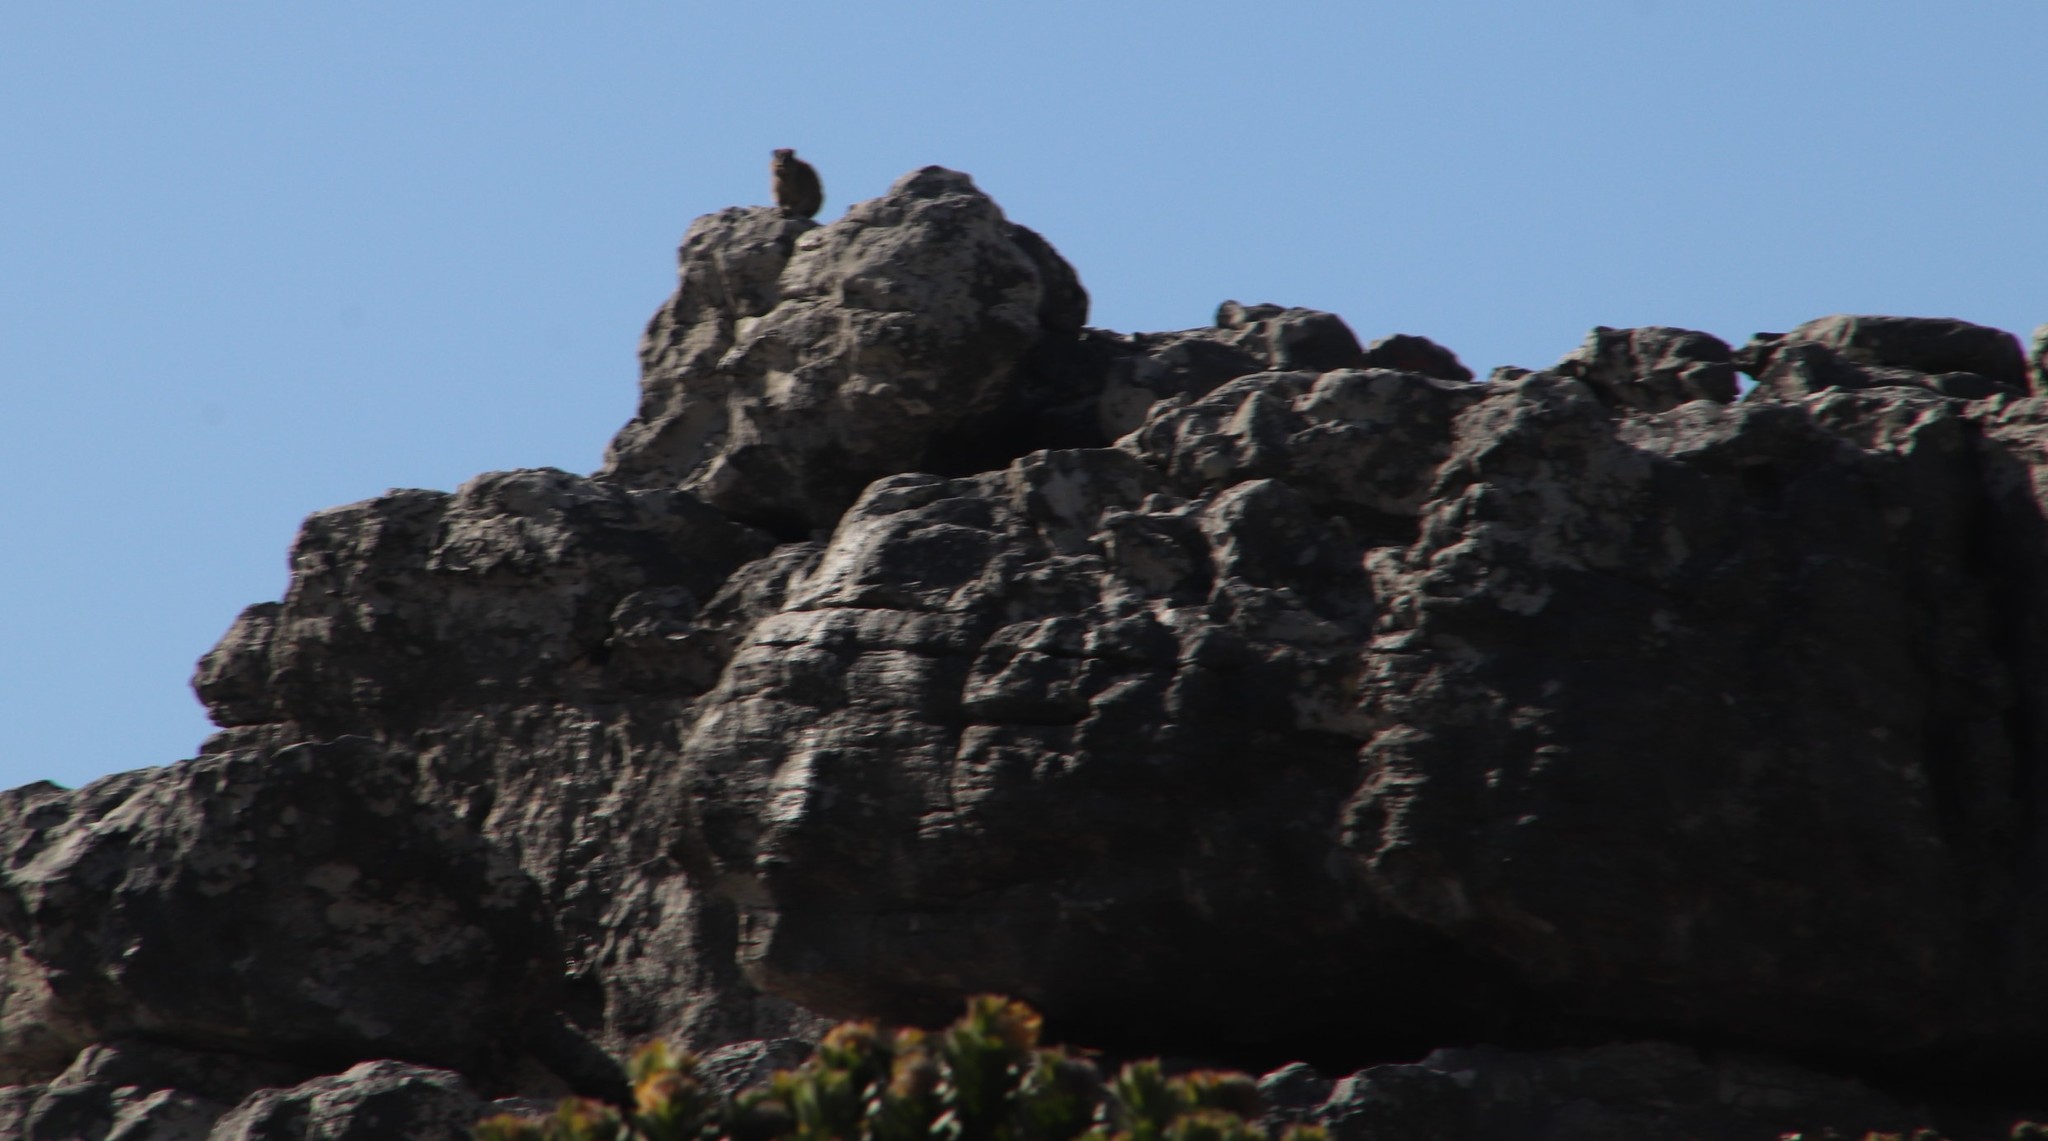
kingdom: Animalia
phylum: Chordata
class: Mammalia
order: Hyracoidea
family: Procaviidae
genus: Procavia
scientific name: Procavia capensis
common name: Rock hyrax
